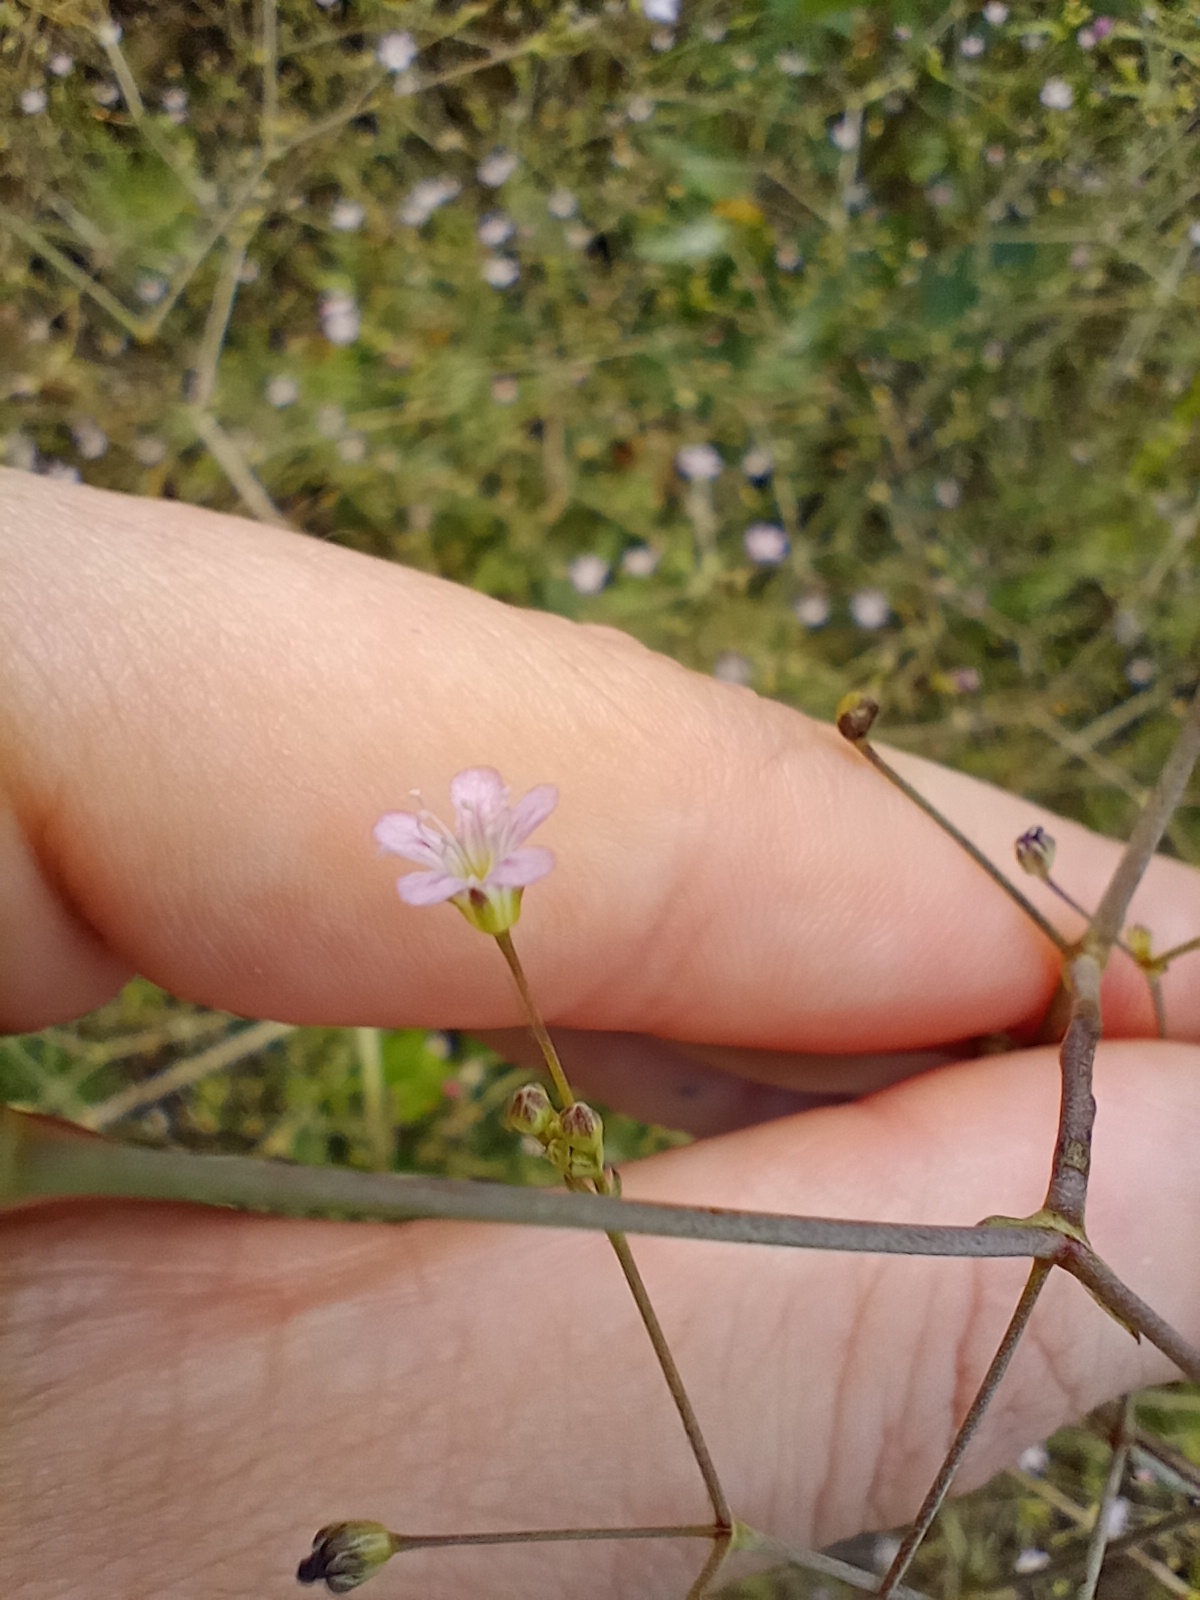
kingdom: Plantae
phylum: Tracheophyta
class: Magnoliopsida
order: Caryophyllales
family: Caryophyllaceae
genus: Gypsophila
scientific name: Gypsophila perfoliata
